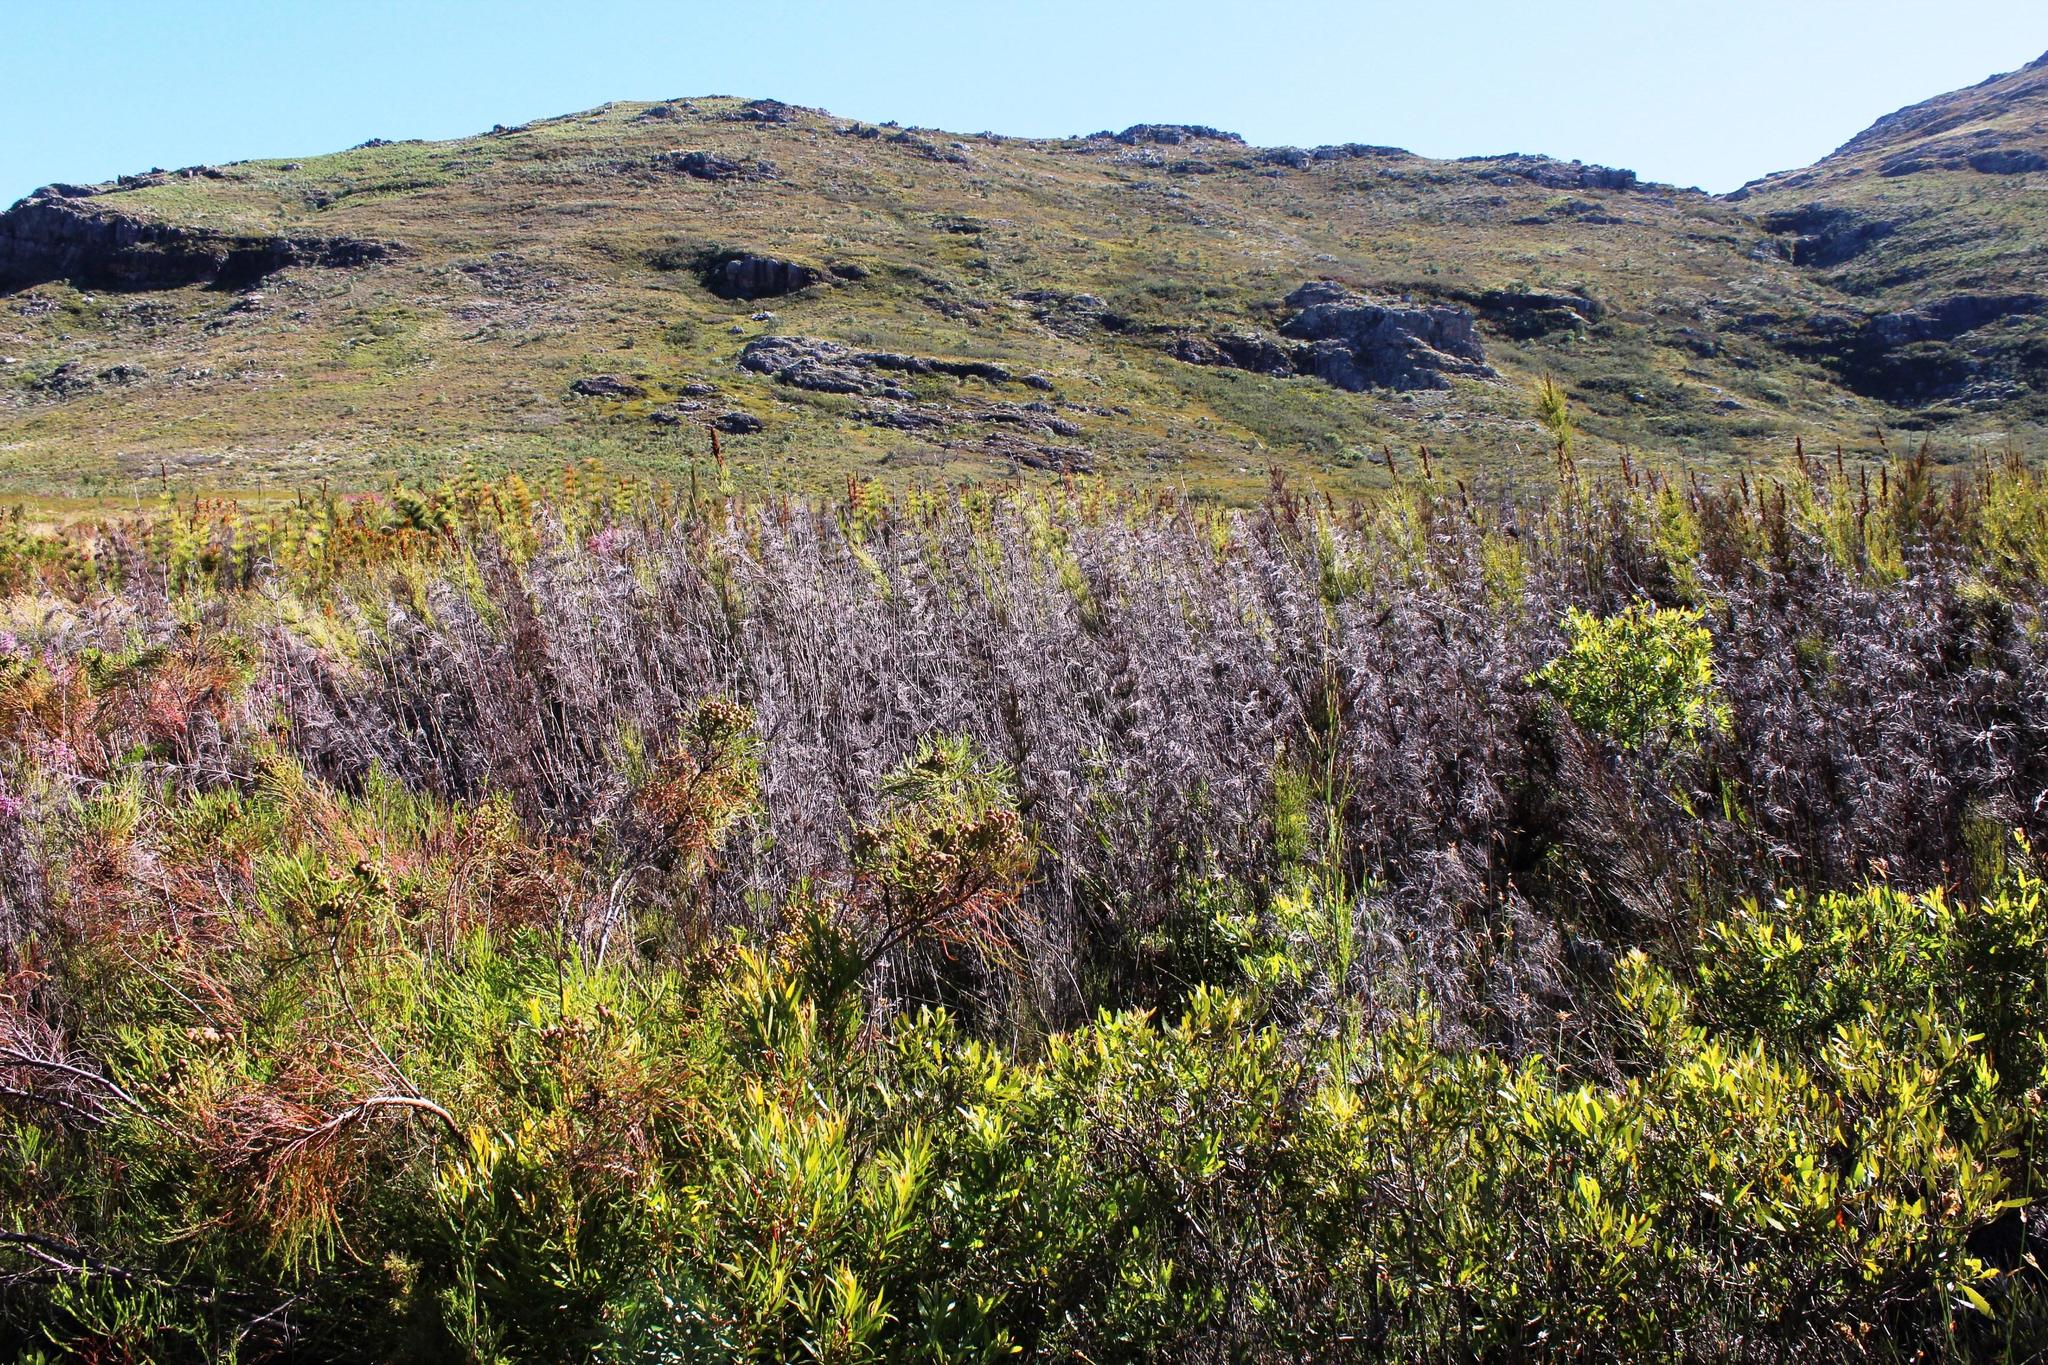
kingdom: Plantae
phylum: Tracheophyta
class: Liliopsida
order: Poales
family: Restionaceae
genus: Elegia
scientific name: Elegia capensis
